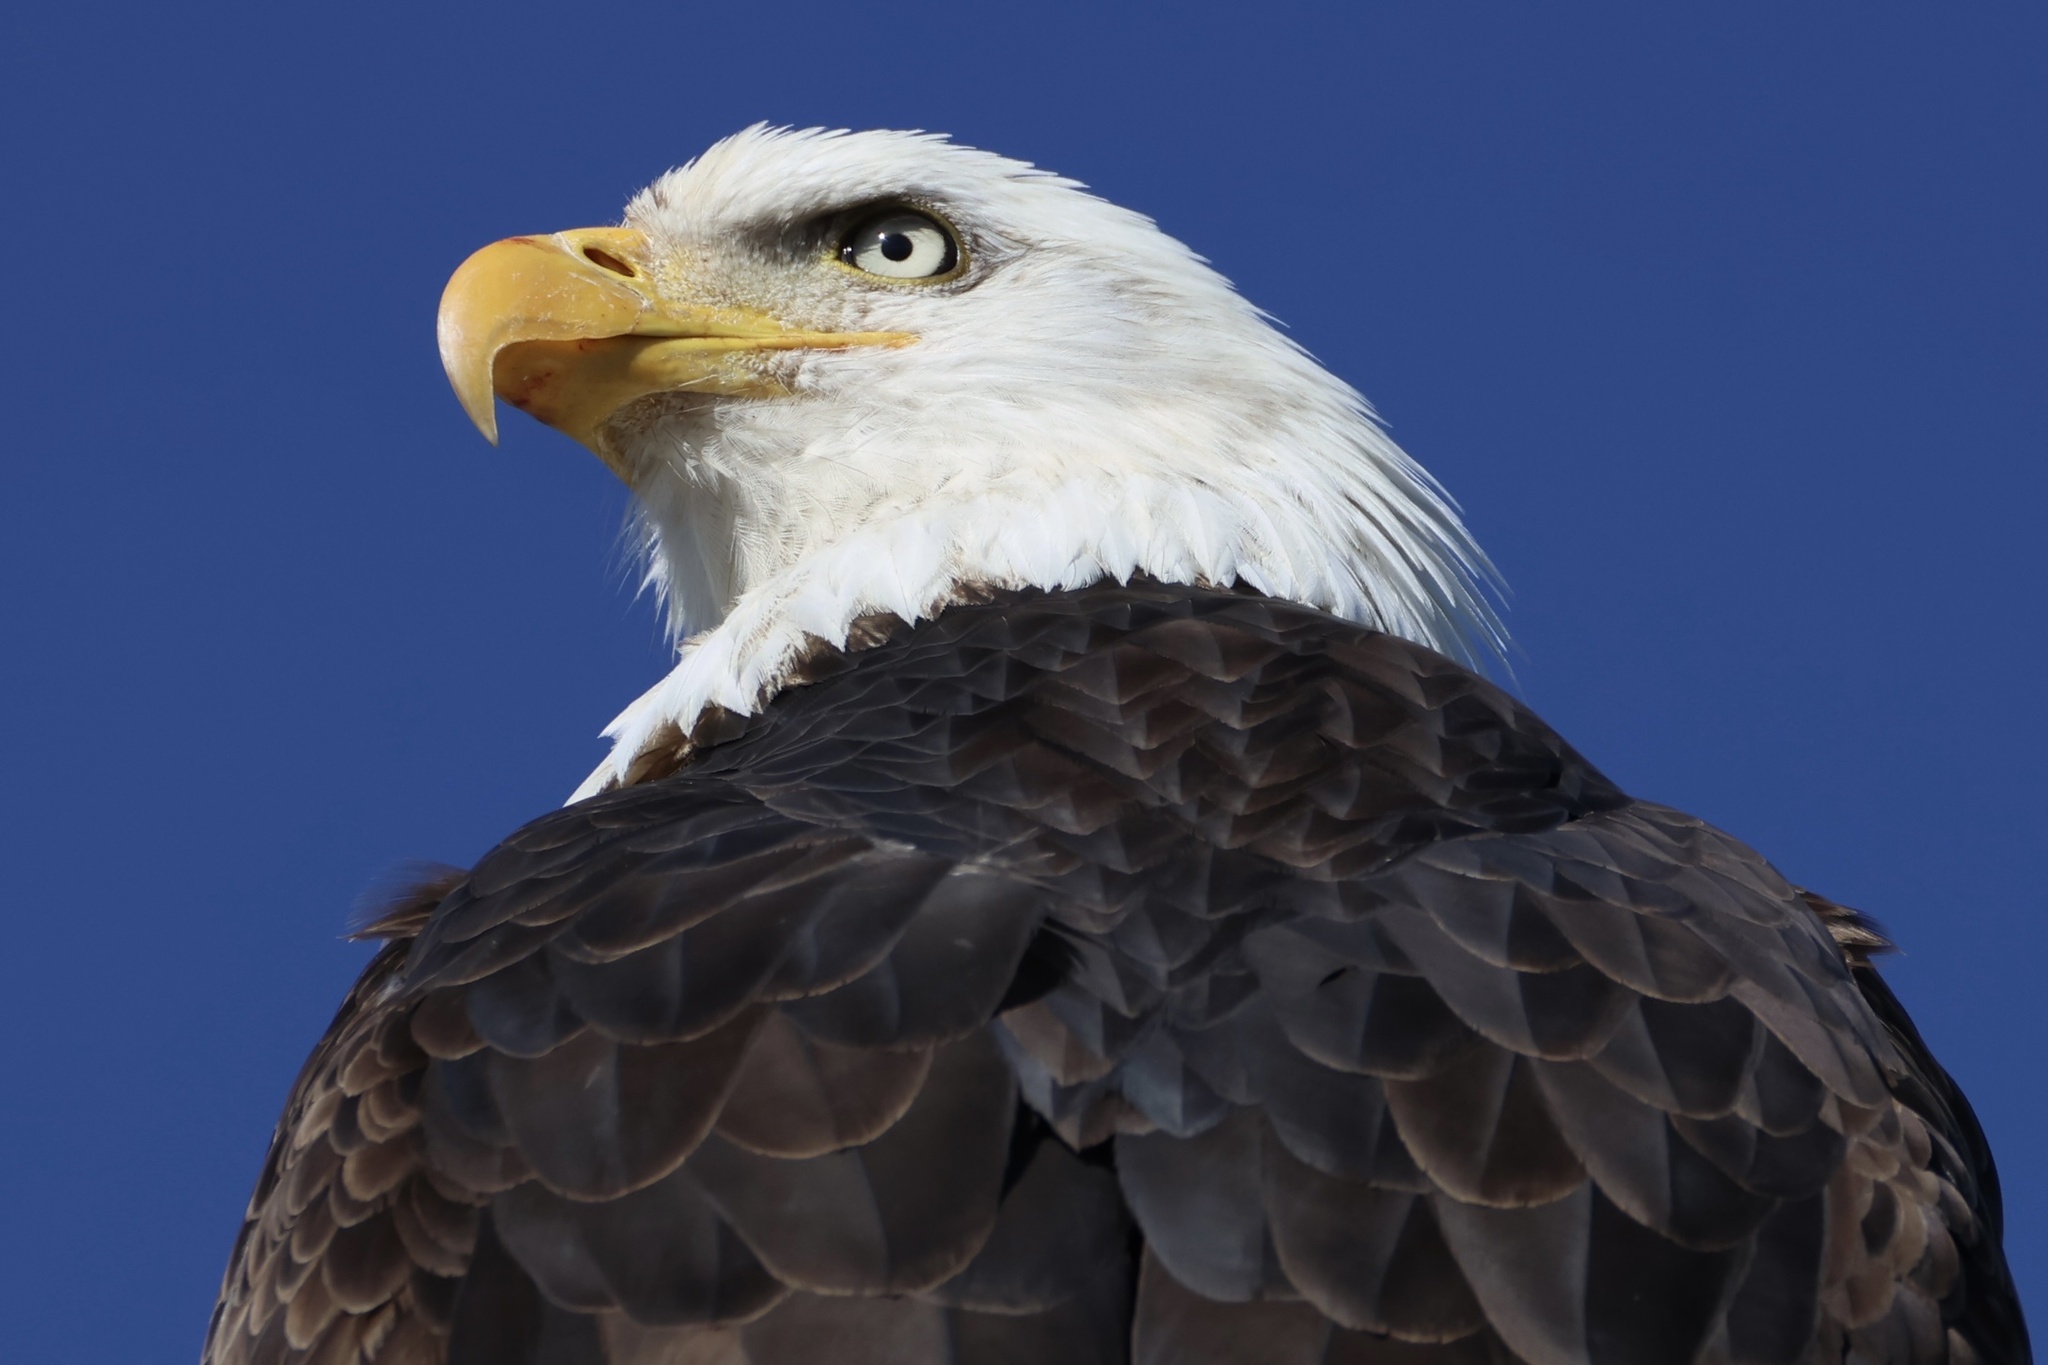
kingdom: Animalia
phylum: Chordata
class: Aves
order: Accipitriformes
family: Accipitridae
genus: Haliaeetus
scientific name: Haliaeetus leucocephalus
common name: Bald eagle
